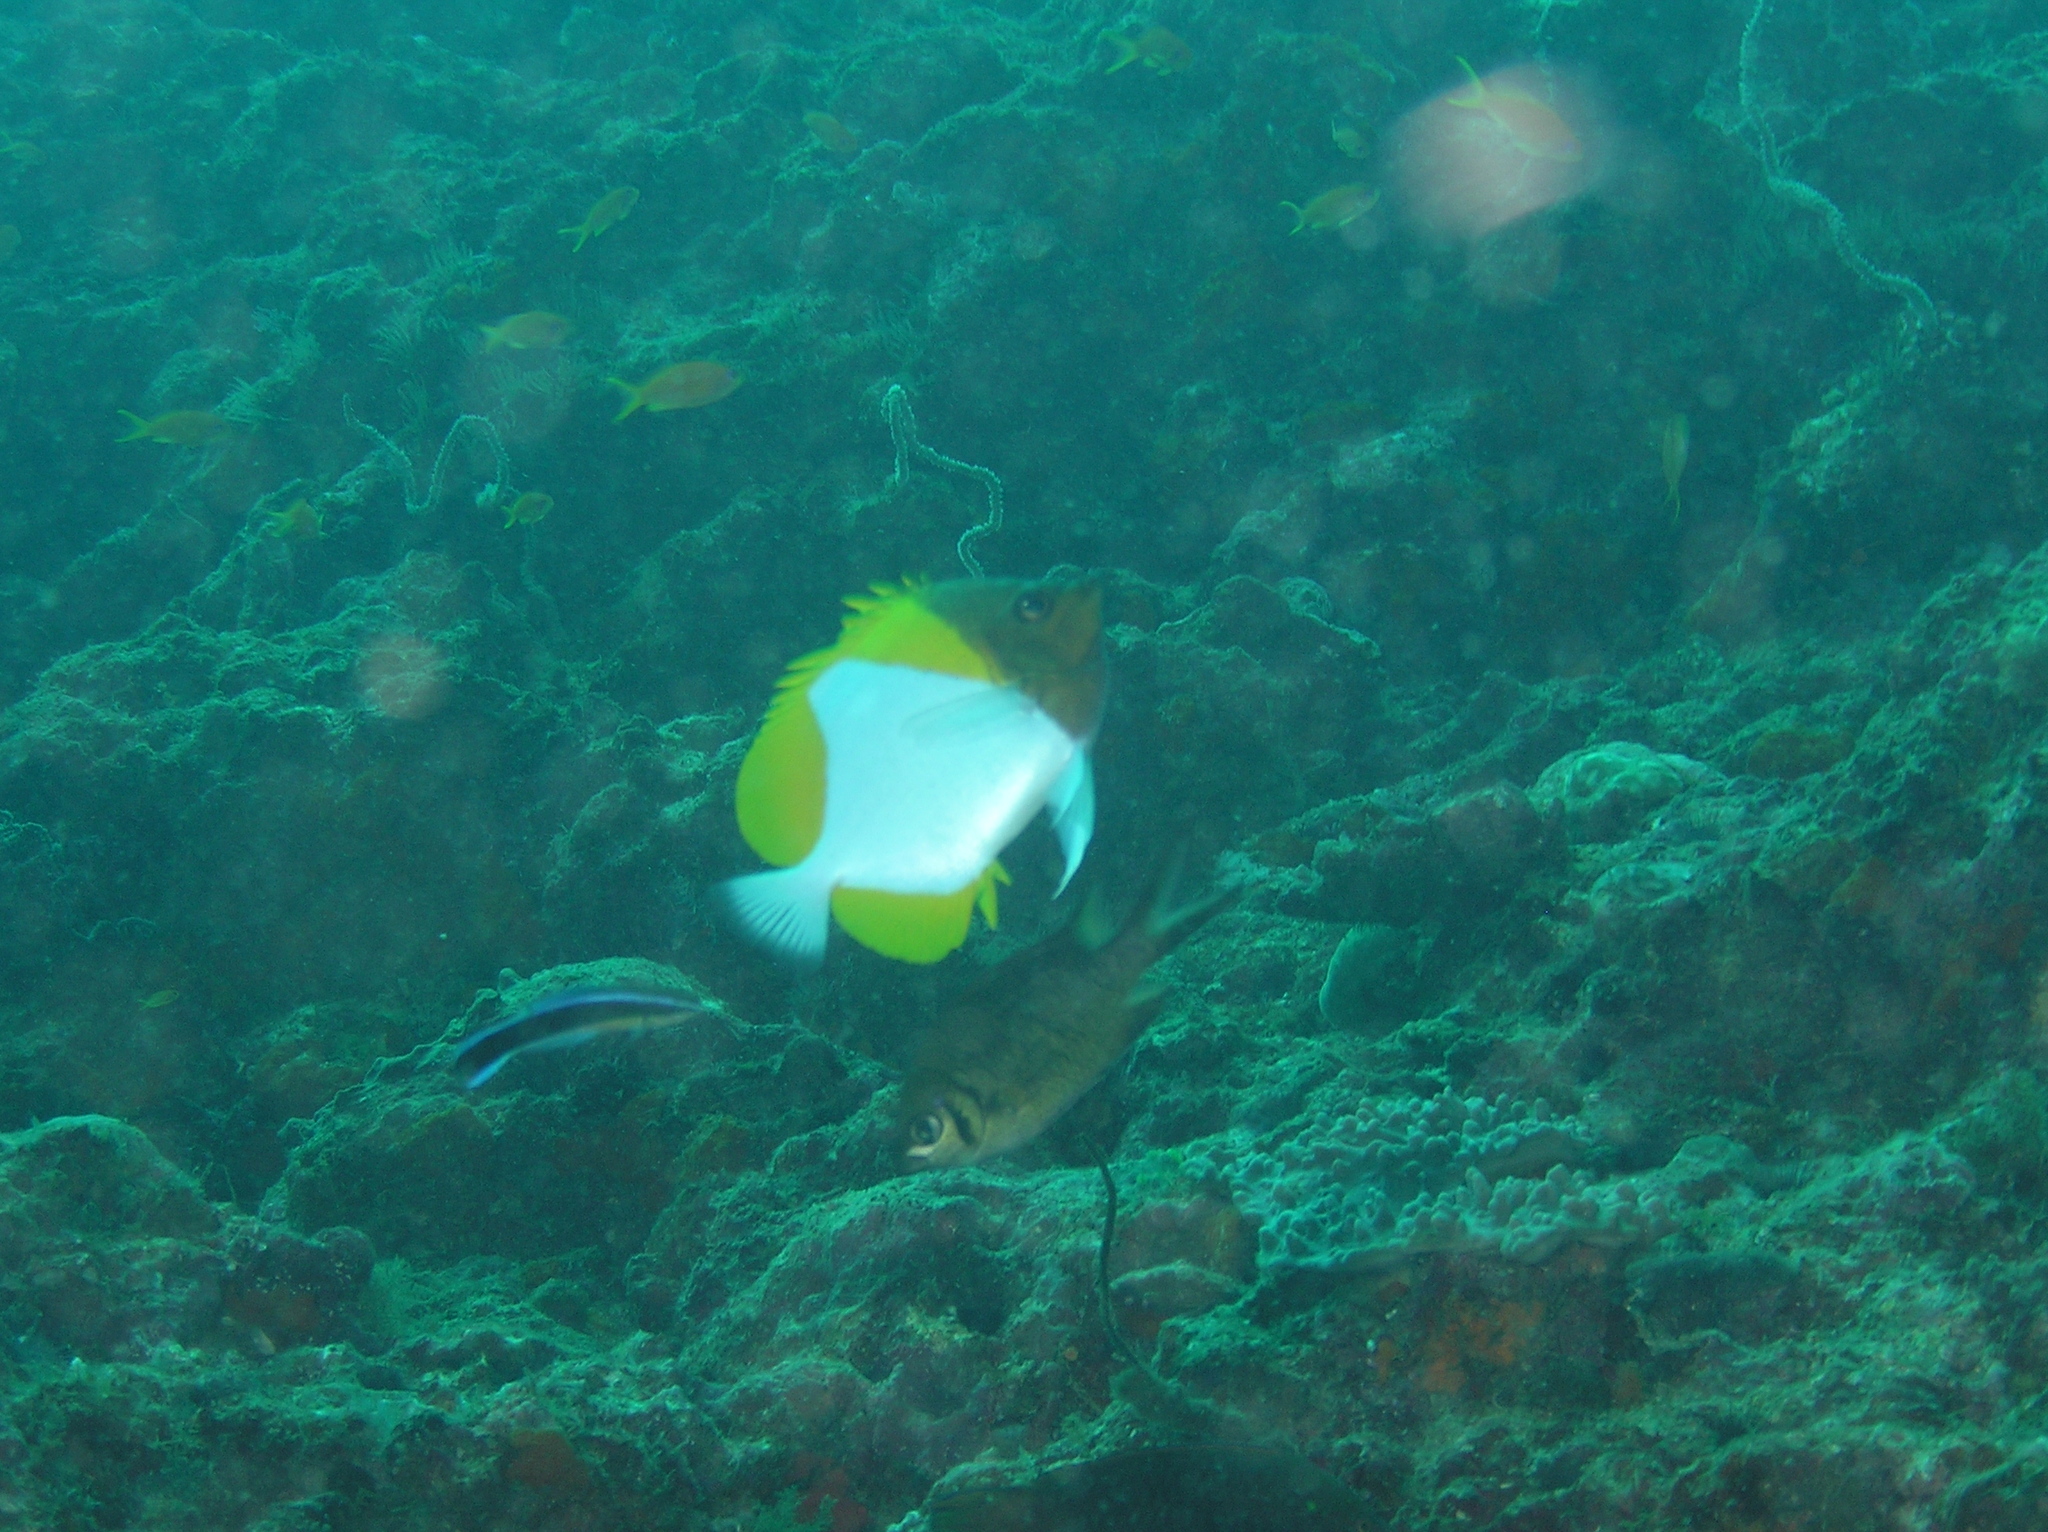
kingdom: Animalia
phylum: Chordata
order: Perciformes
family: Chaetodontidae
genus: Hemitaurichthys
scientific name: Hemitaurichthys polylepis
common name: Brushytoothed butterflyfish
